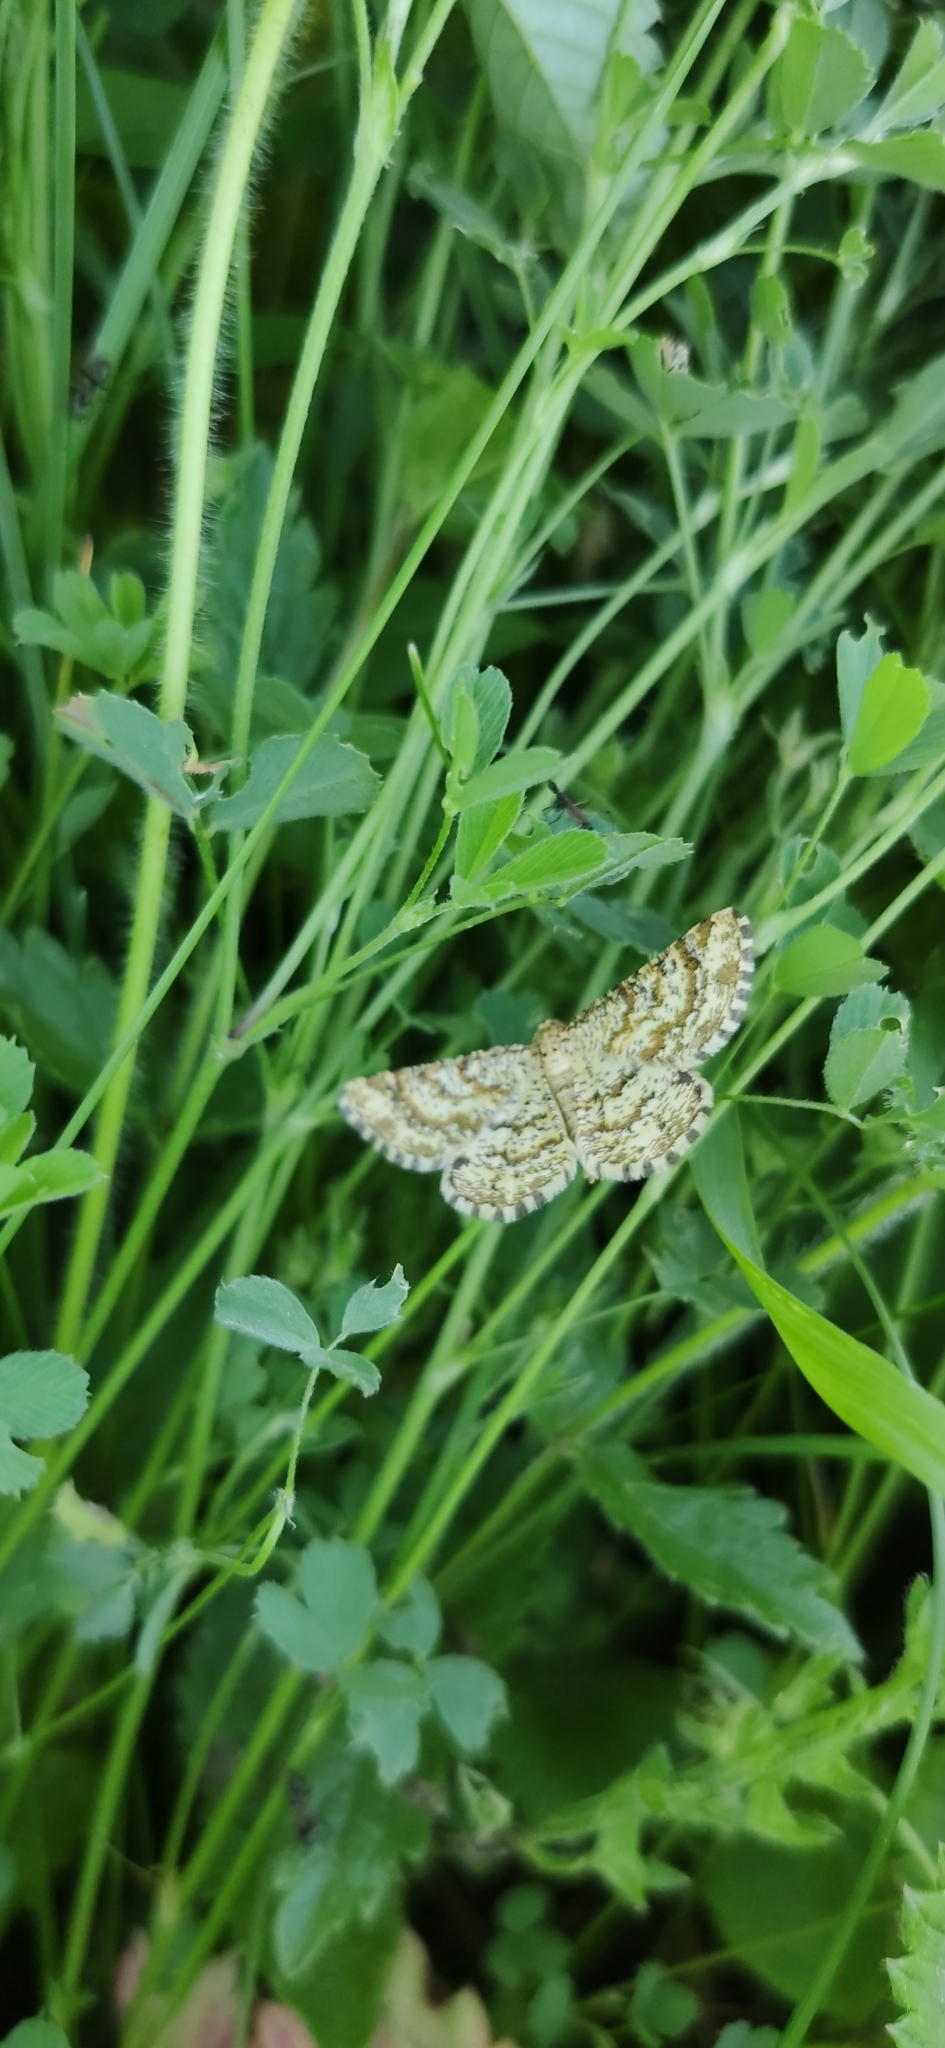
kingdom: Animalia
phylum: Arthropoda
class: Insecta
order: Lepidoptera
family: Geometridae
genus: Heliomata
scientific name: Heliomata glarearia
